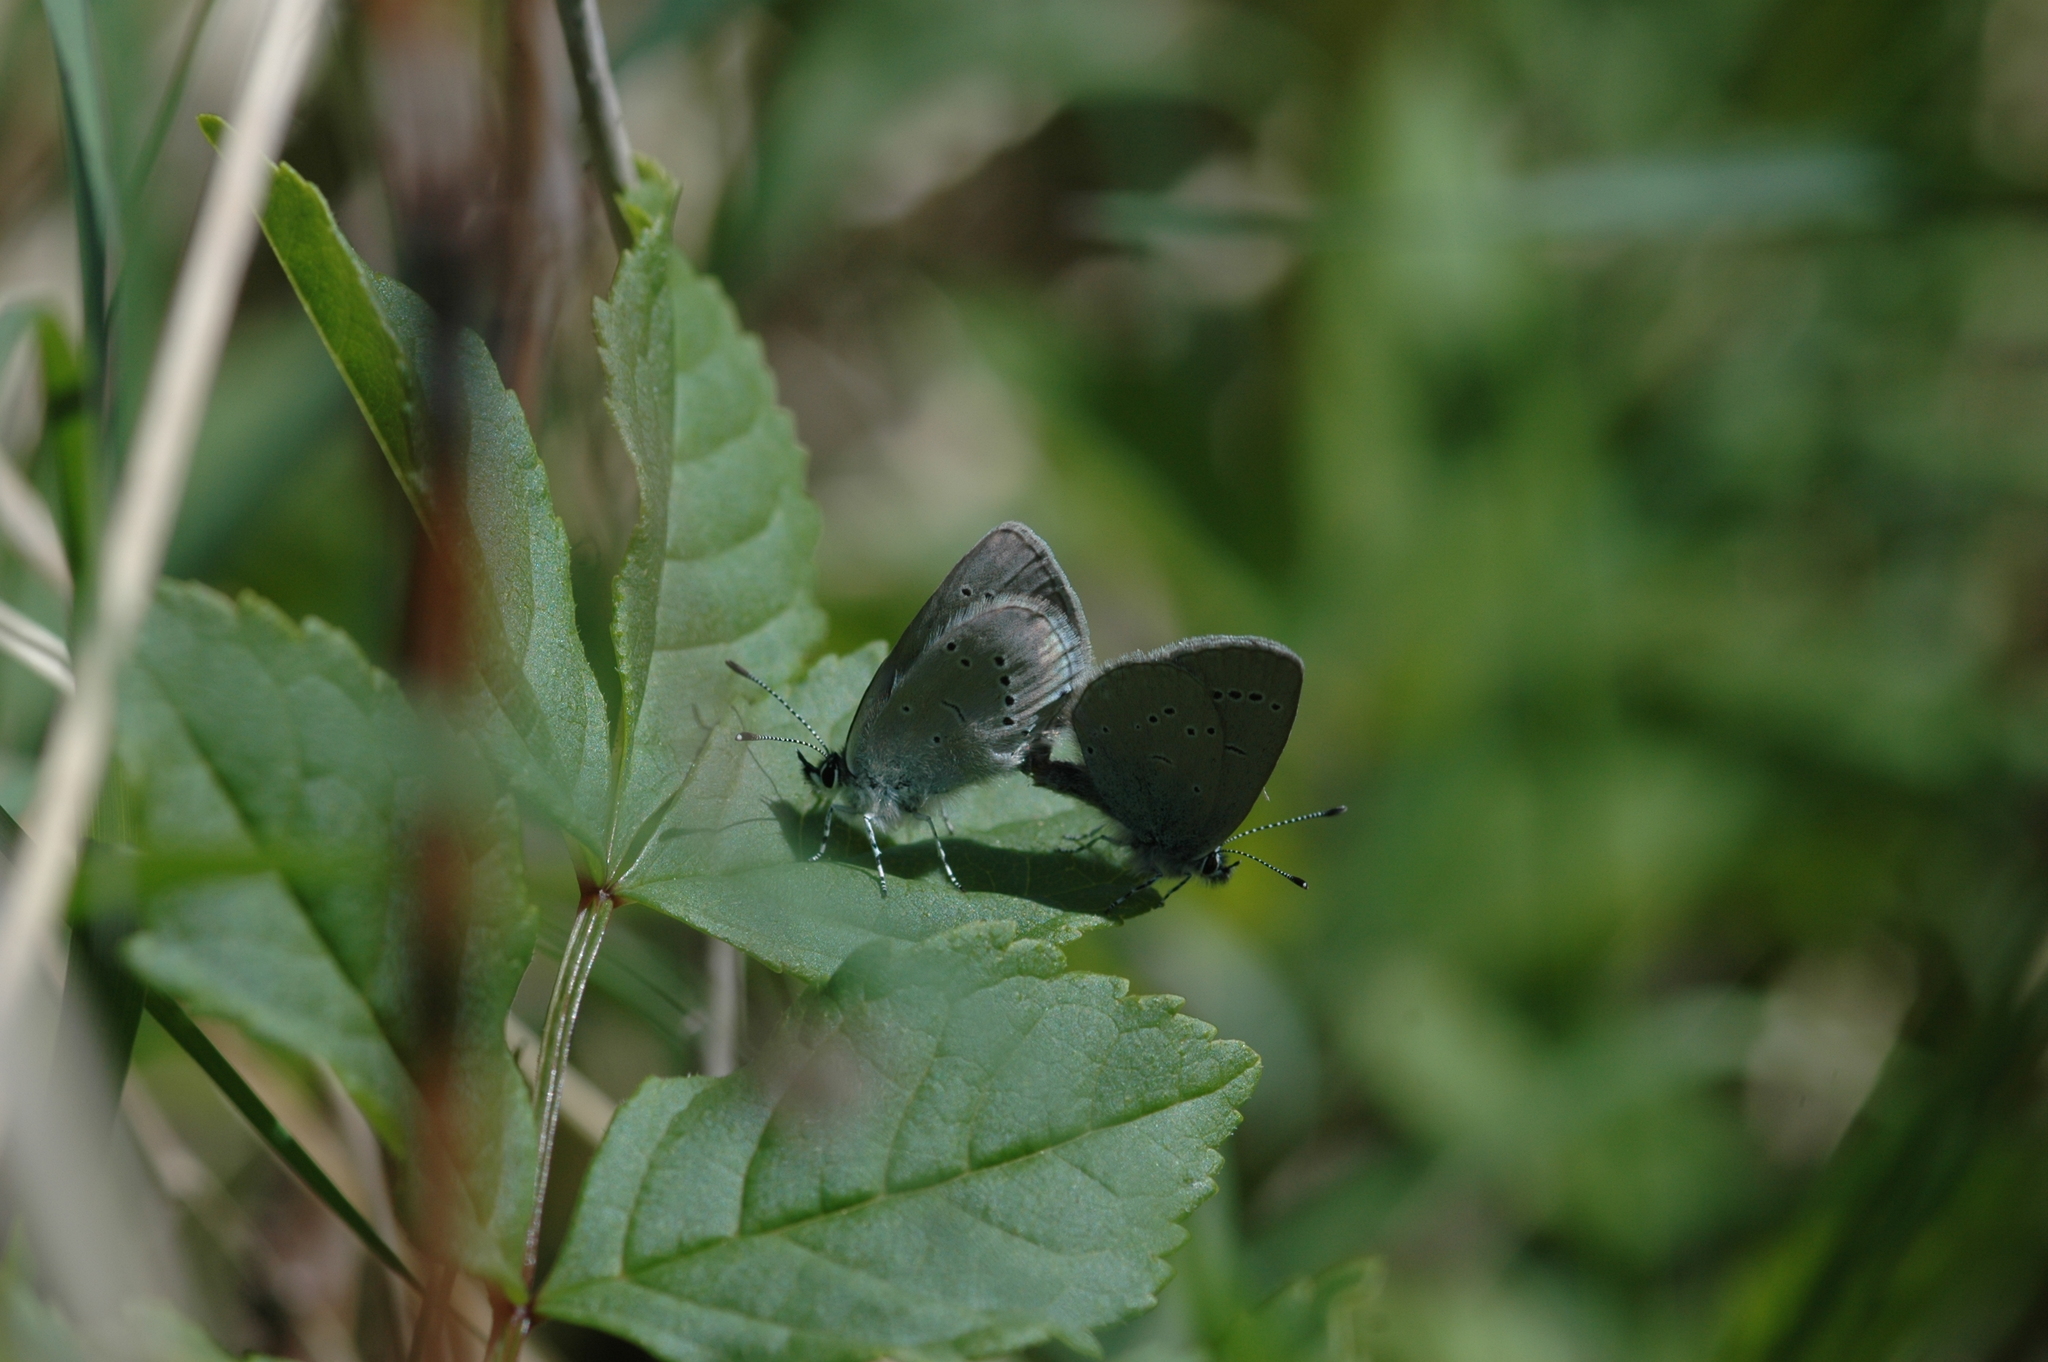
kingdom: Animalia
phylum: Arthropoda
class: Insecta
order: Lepidoptera
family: Lycaenidae
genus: Cupido
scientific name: Cupido minimus
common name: Small blue
